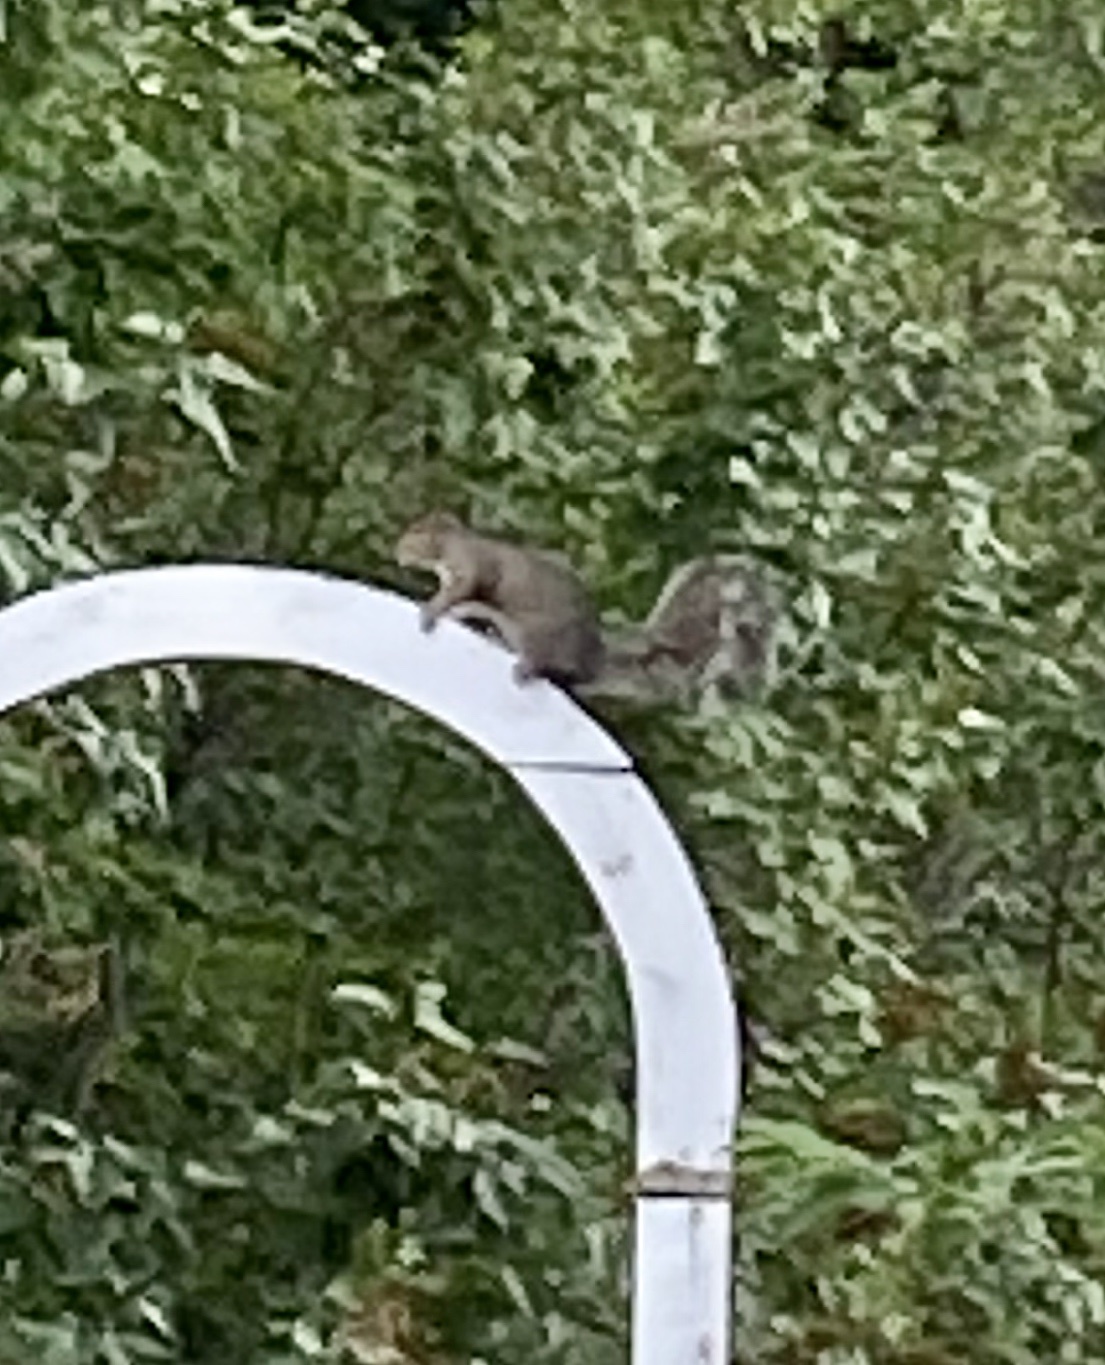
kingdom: Animalia
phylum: Chordata
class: Mammalia
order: Rodentia
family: Sciuridae
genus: Sciurus
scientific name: Sciurus carolinensis
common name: Eastern gray squirrel
